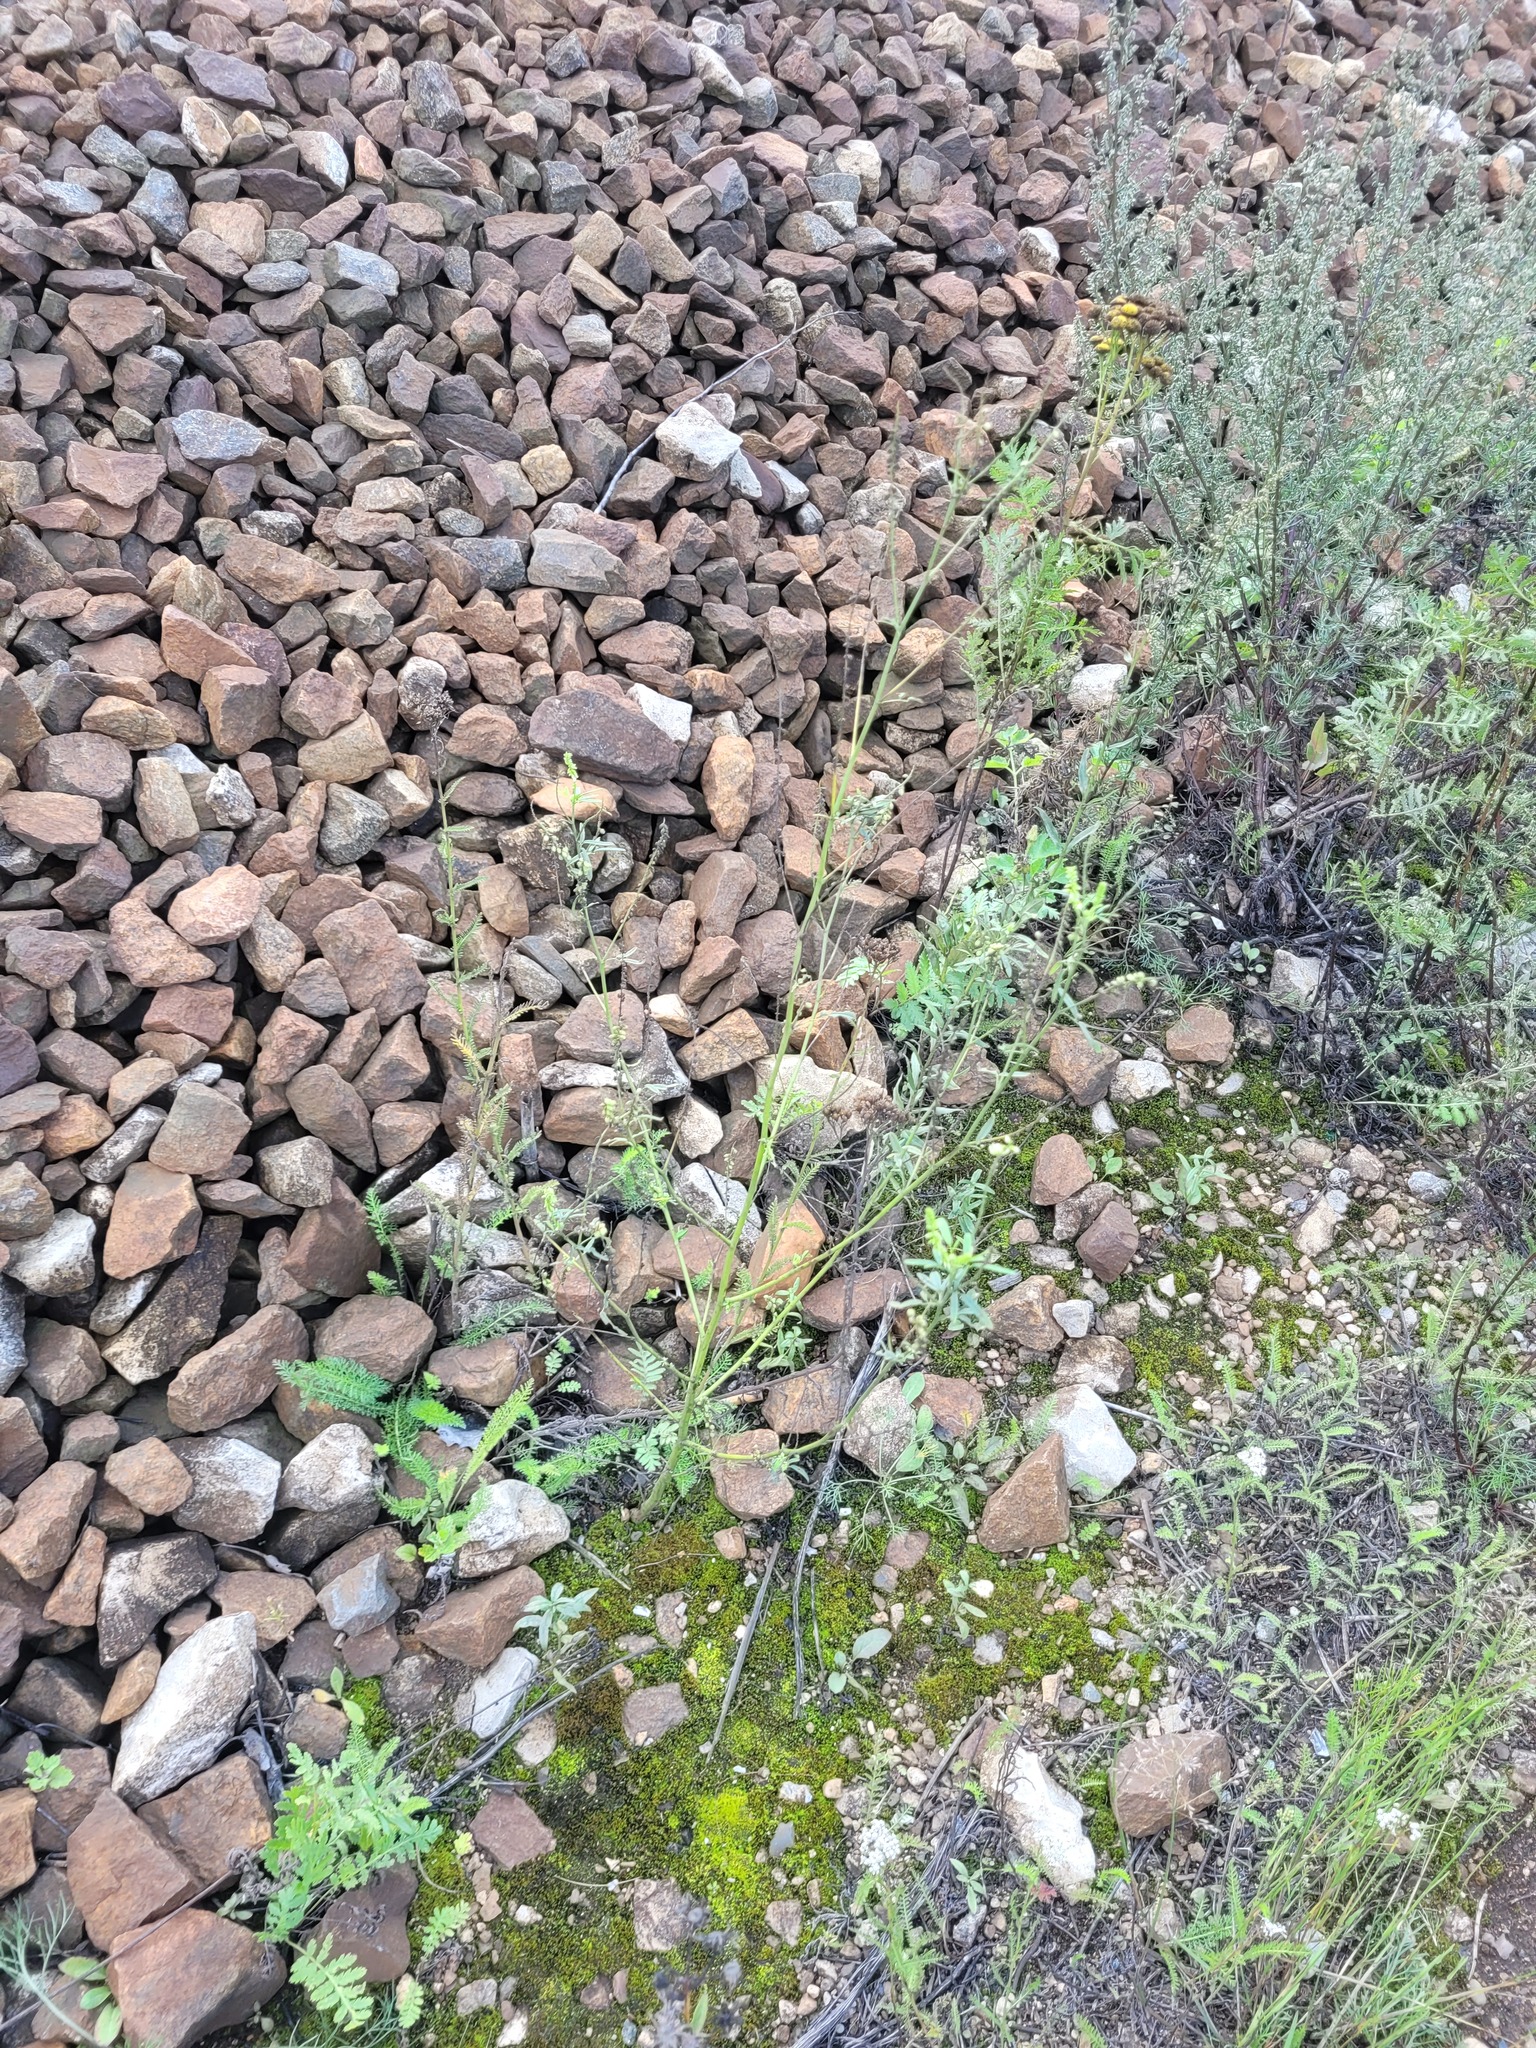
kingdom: Plantae
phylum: Tracheophyta
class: Magnoliopsida
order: Fabales
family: Fabaceae
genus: Melilotus
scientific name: Melilotus albus
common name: White melilot
